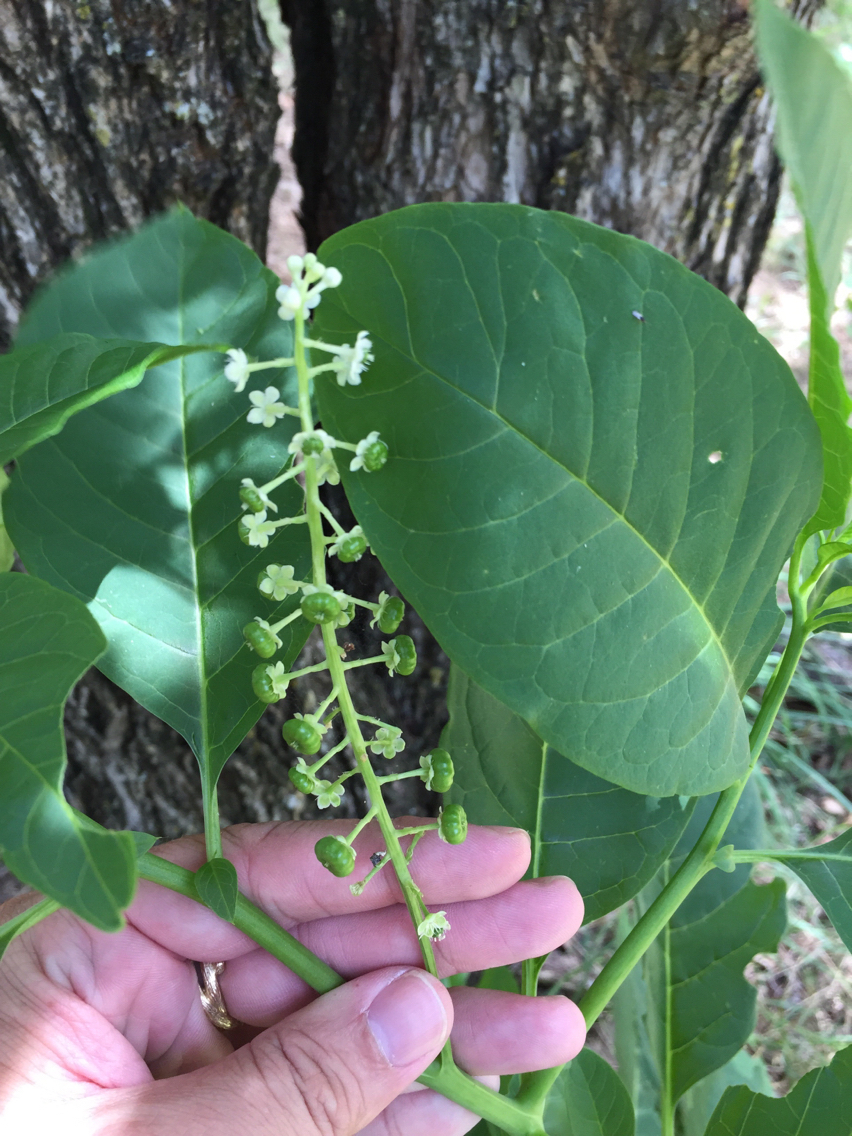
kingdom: Plantae
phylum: Tracheophyta
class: Magnoliopsida
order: Caryophyllales
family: Phytolaccaceae
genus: Phytolacca
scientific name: Phytolacca americana
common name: American pokeweed
